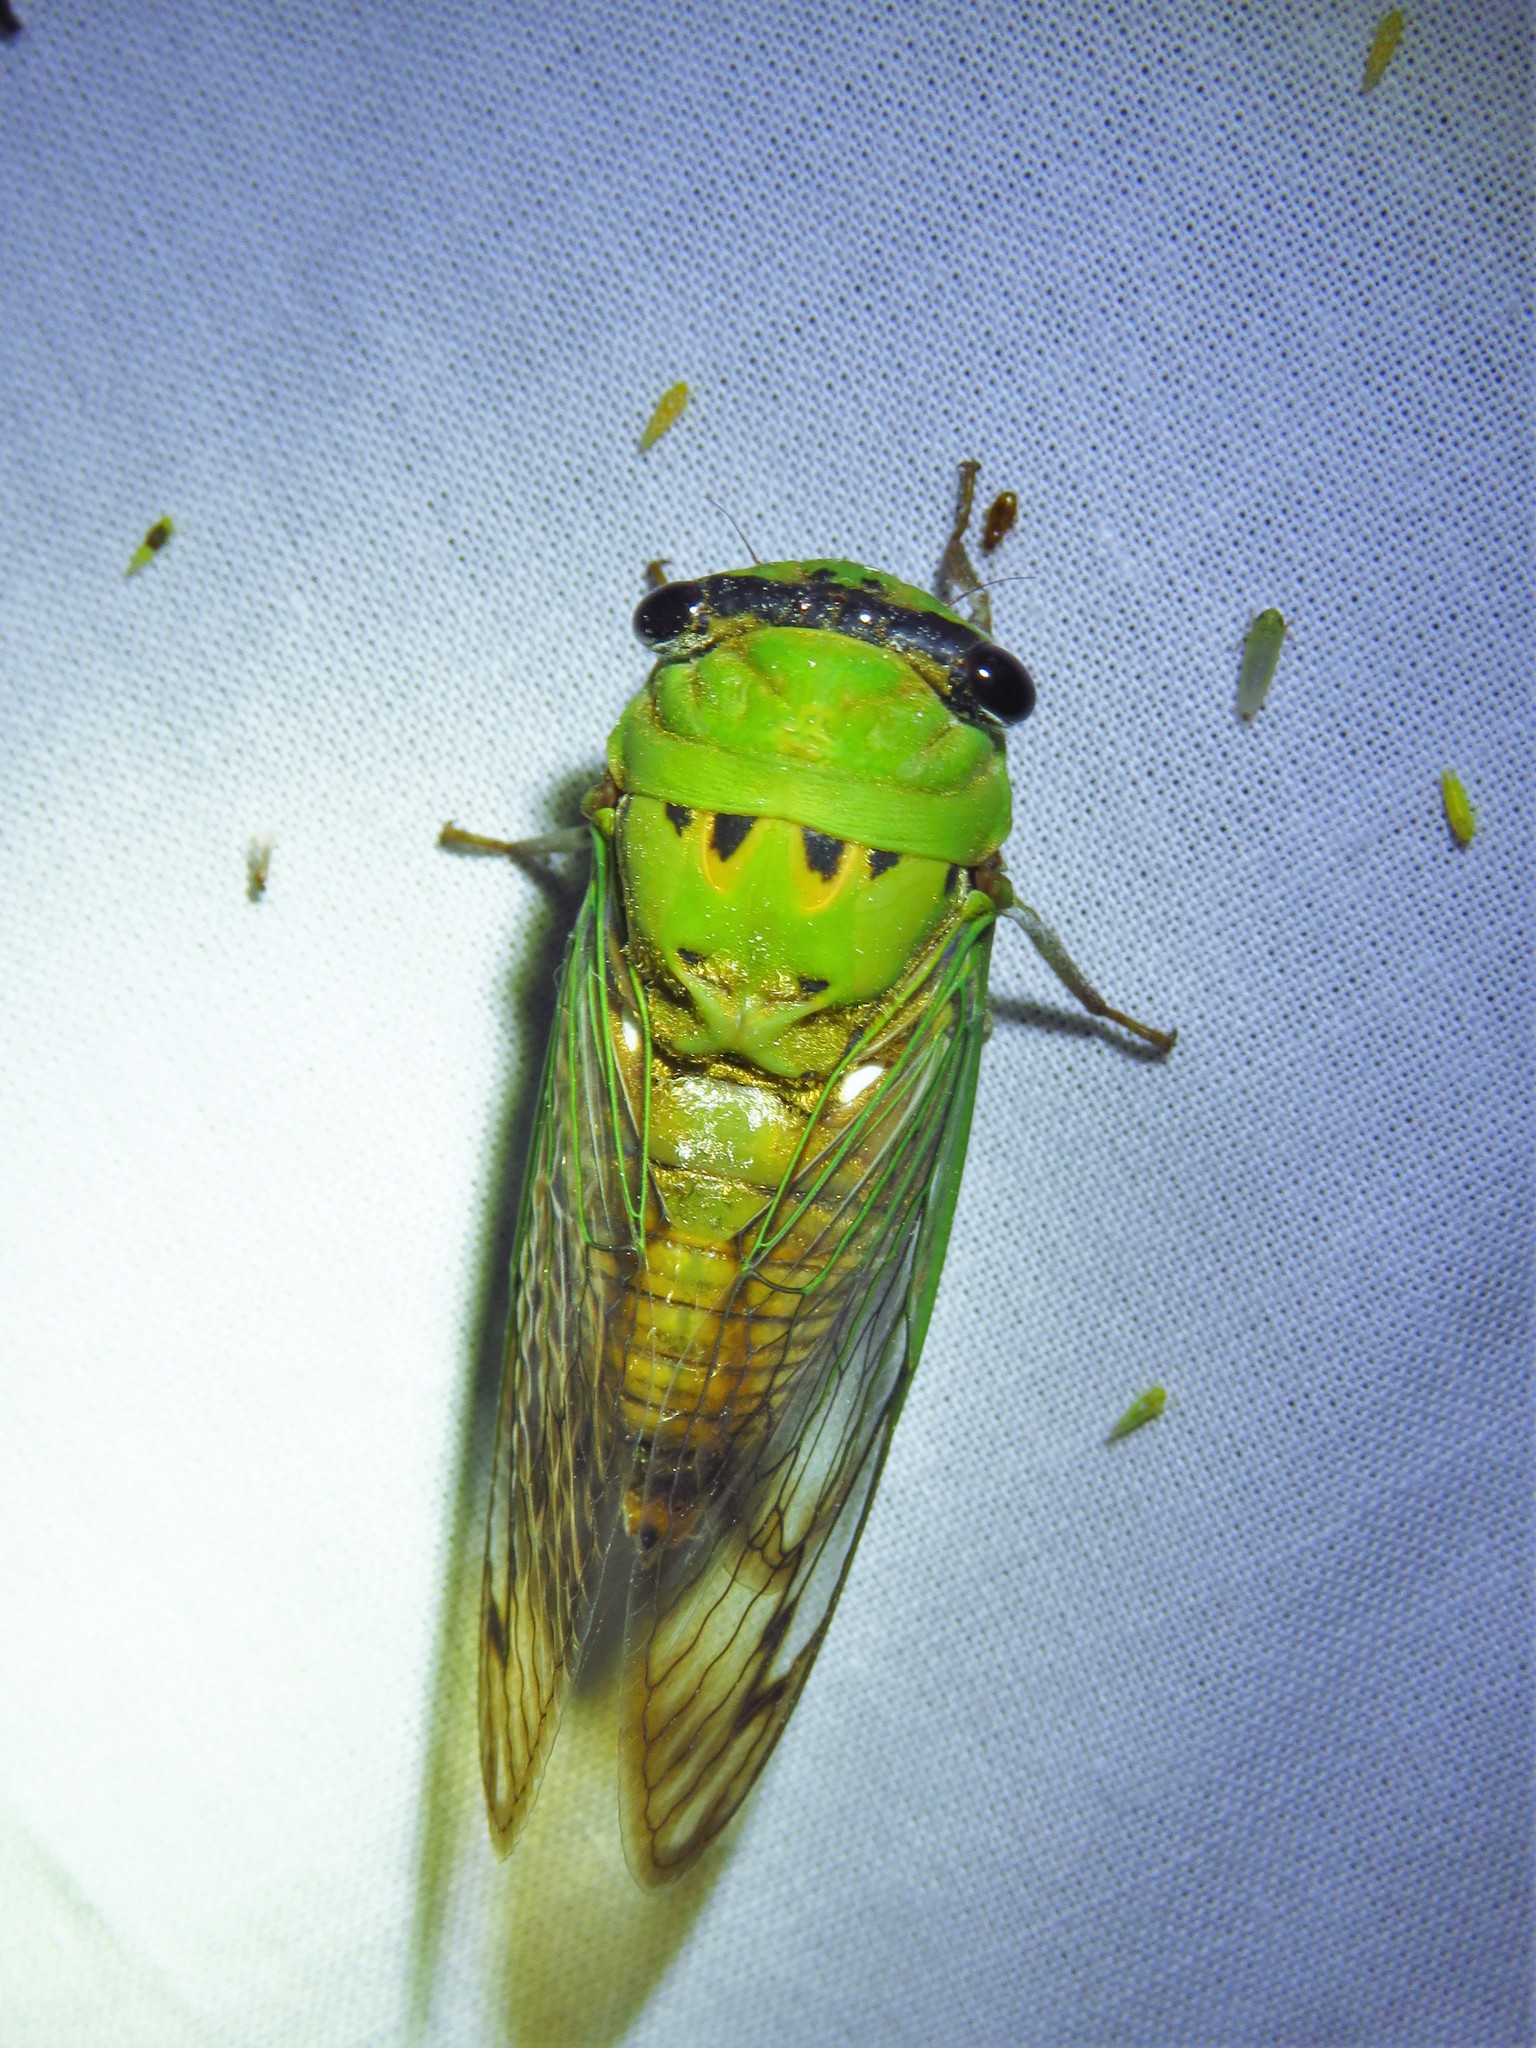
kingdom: Animalia
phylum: Arthropoda
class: Insecta
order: Hemiptera
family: Cicadidae
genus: Neotibicen
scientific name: Neotibicen superbus
